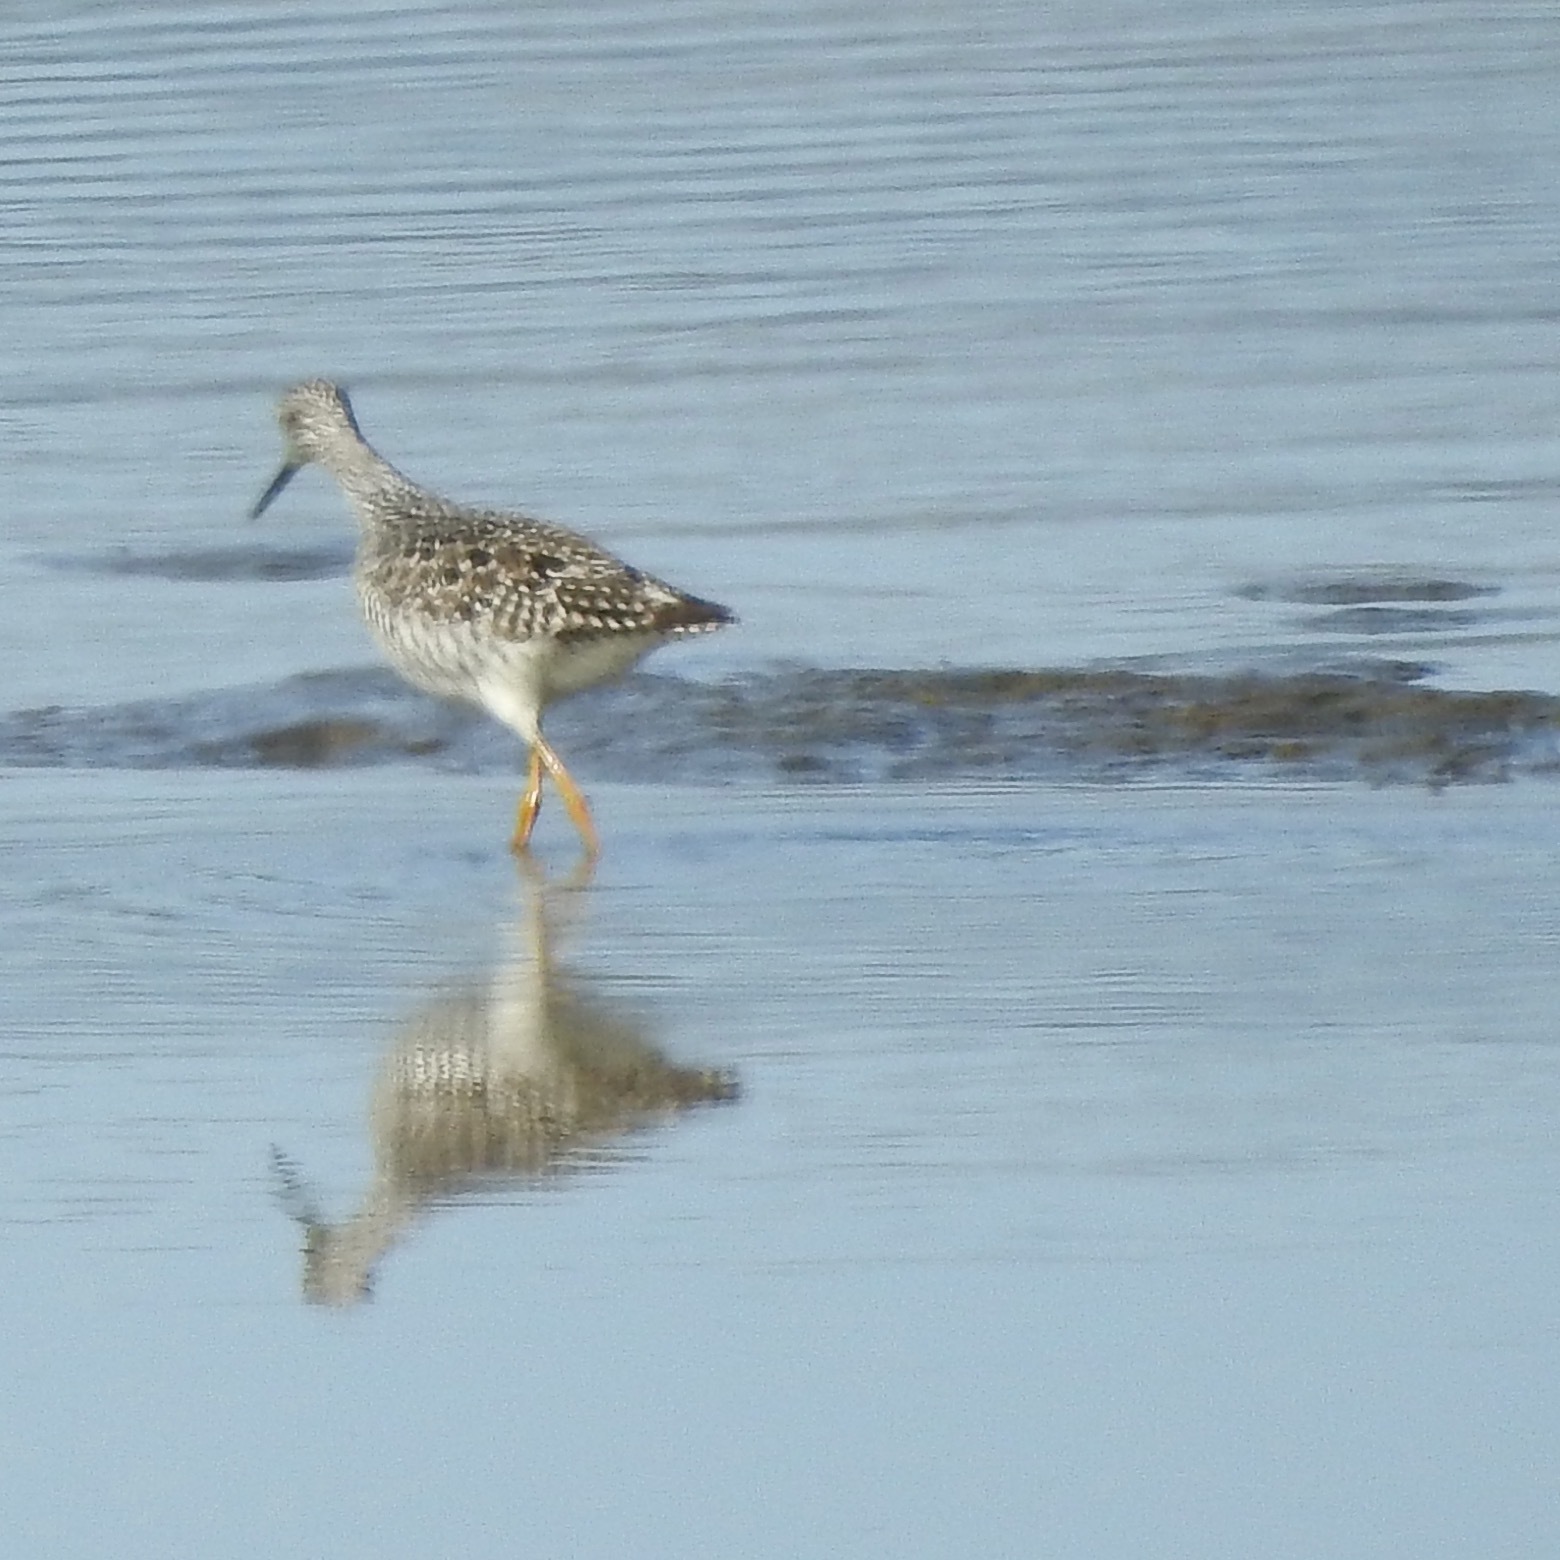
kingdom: Animalia
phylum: Chordata
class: Aves
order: Charadriiformes
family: Scolopacidae
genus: Tringa
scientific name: Tringa melanoleuca
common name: Greater yellowlegs
